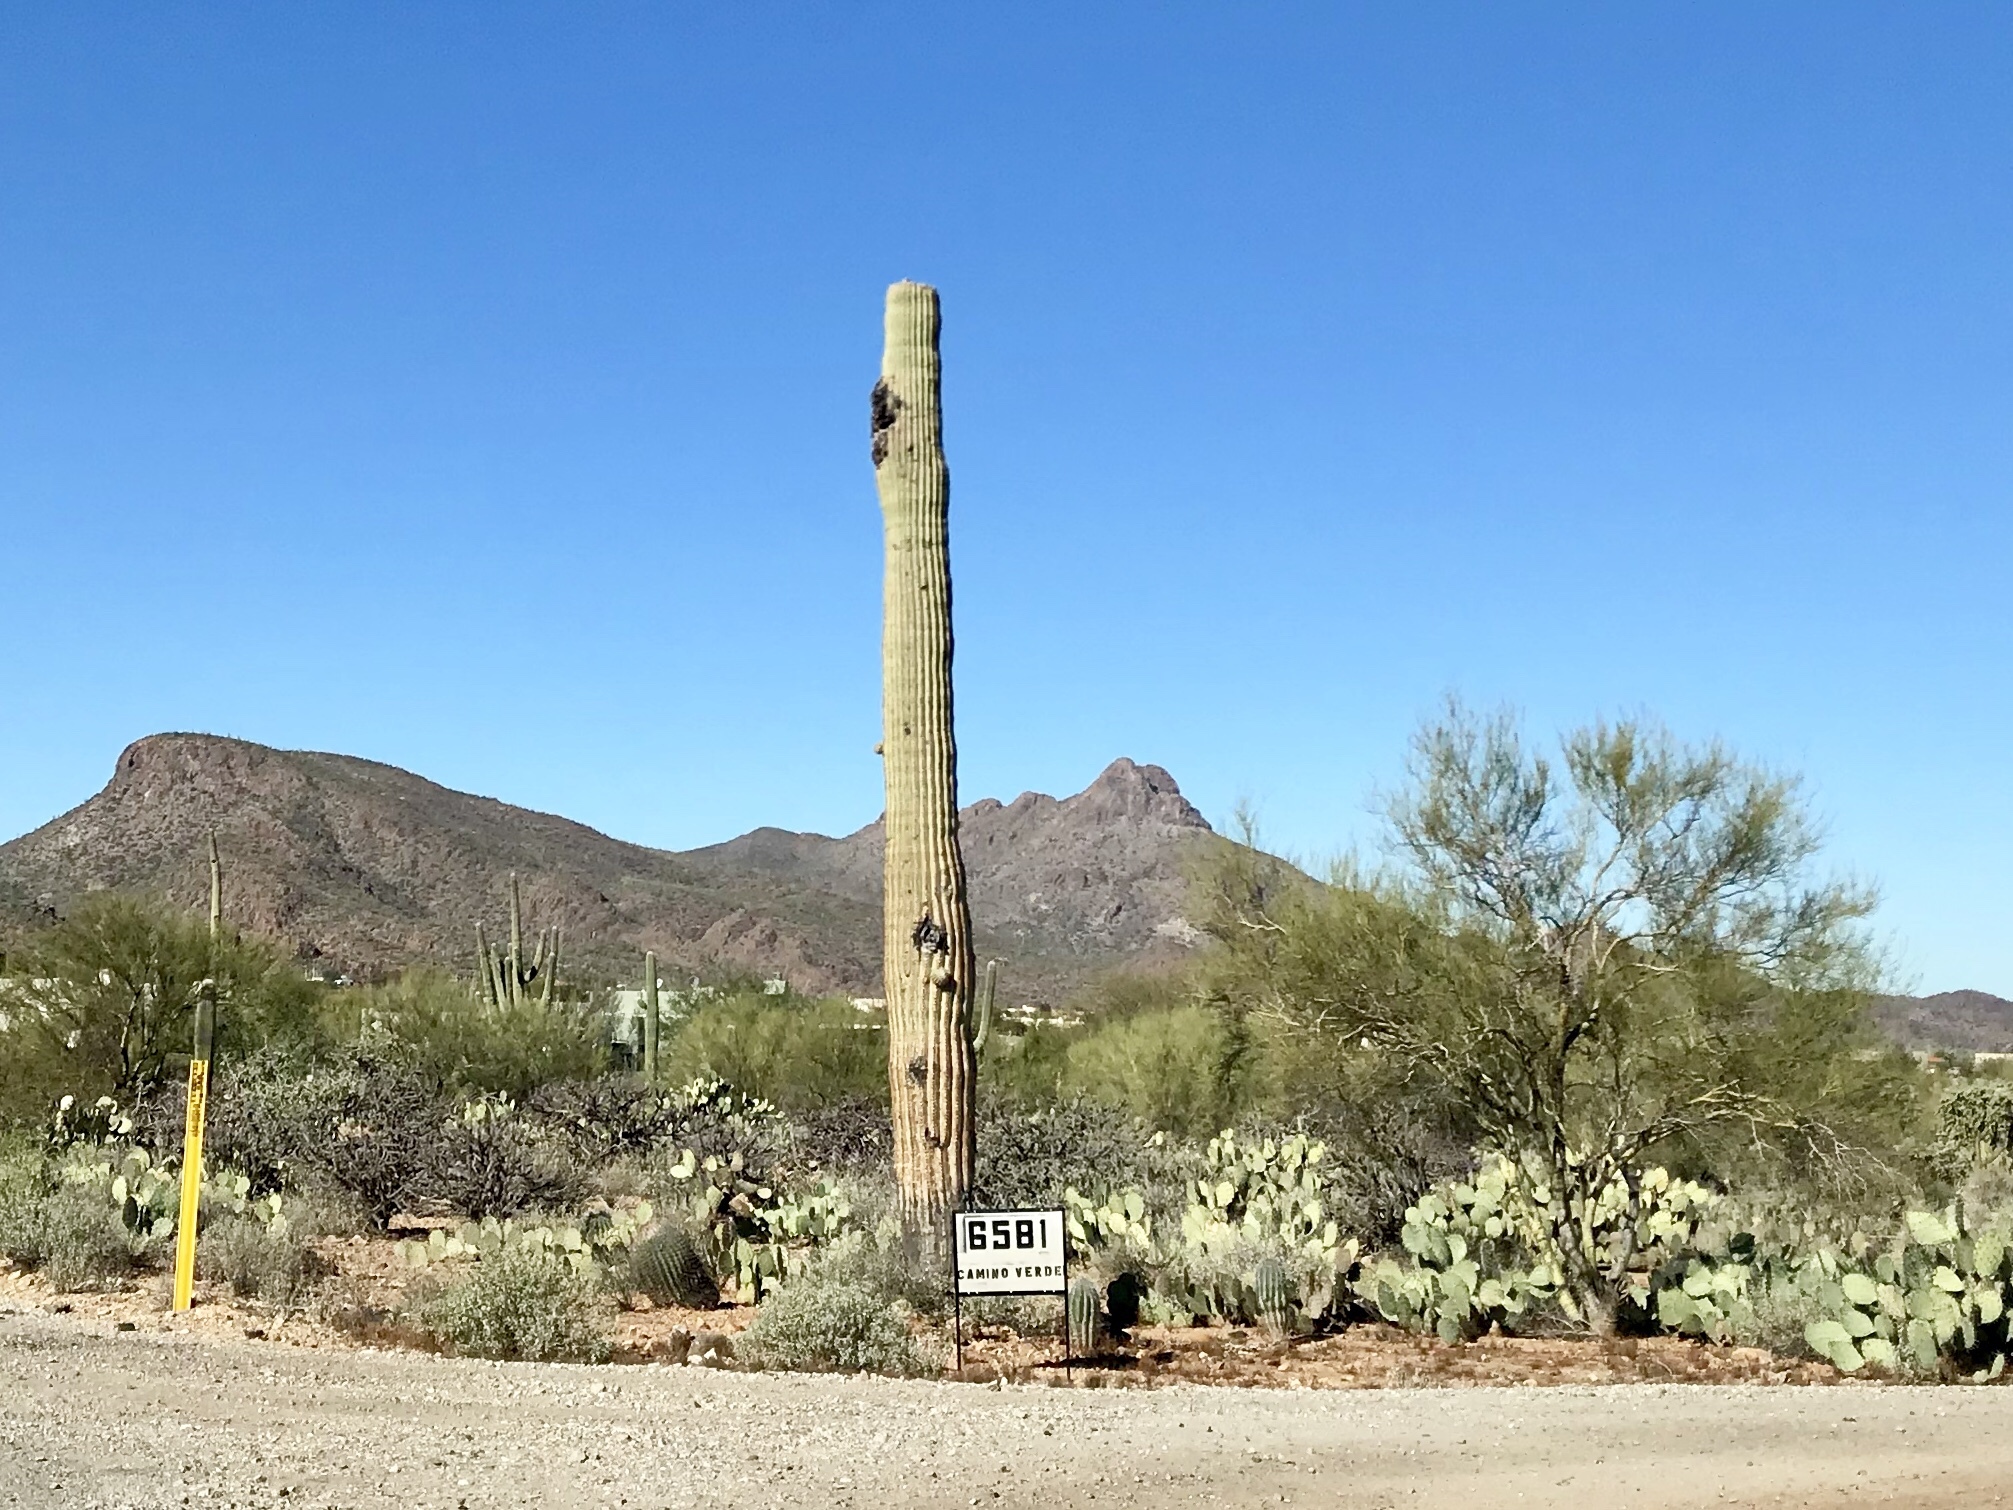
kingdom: Plantae
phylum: Tracheophyta
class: Magnoliopsida
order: Caryophyllales
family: Cactaceae
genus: Carnegiea
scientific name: Carnegiea gigantea
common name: Saguaro
